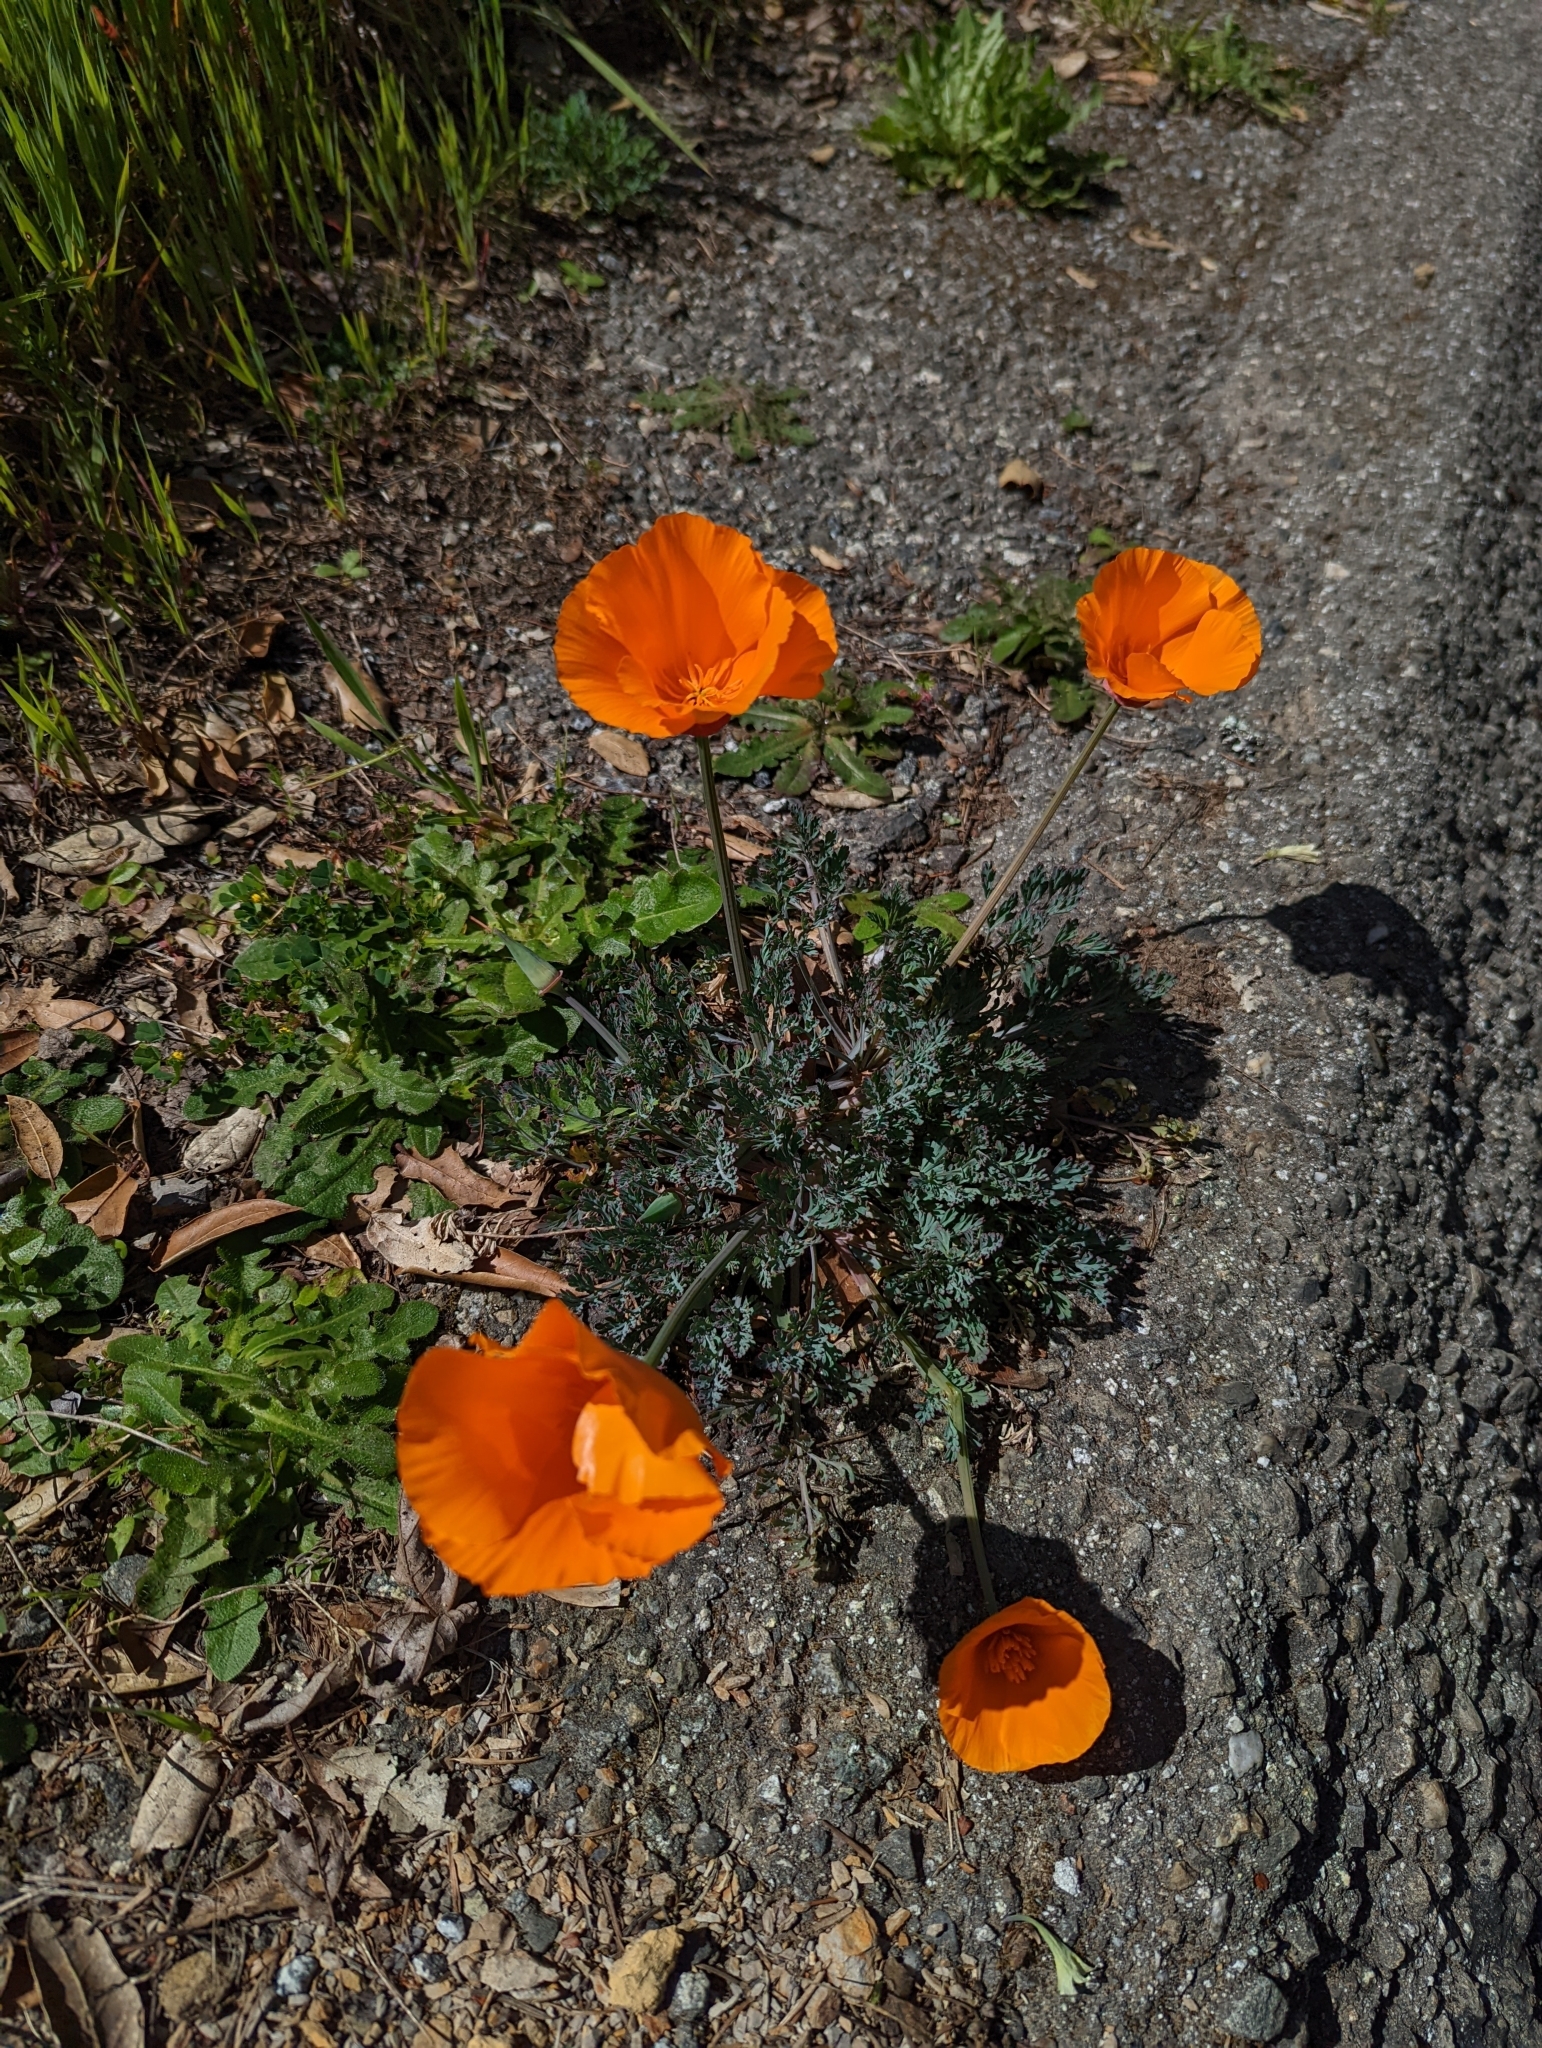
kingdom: Plantae
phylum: Tracheophyta
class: Magnoliopsida
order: Ranunculales
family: Papaveraceae
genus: Eschscholzia
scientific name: Eschscholzia californica
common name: California poppy
